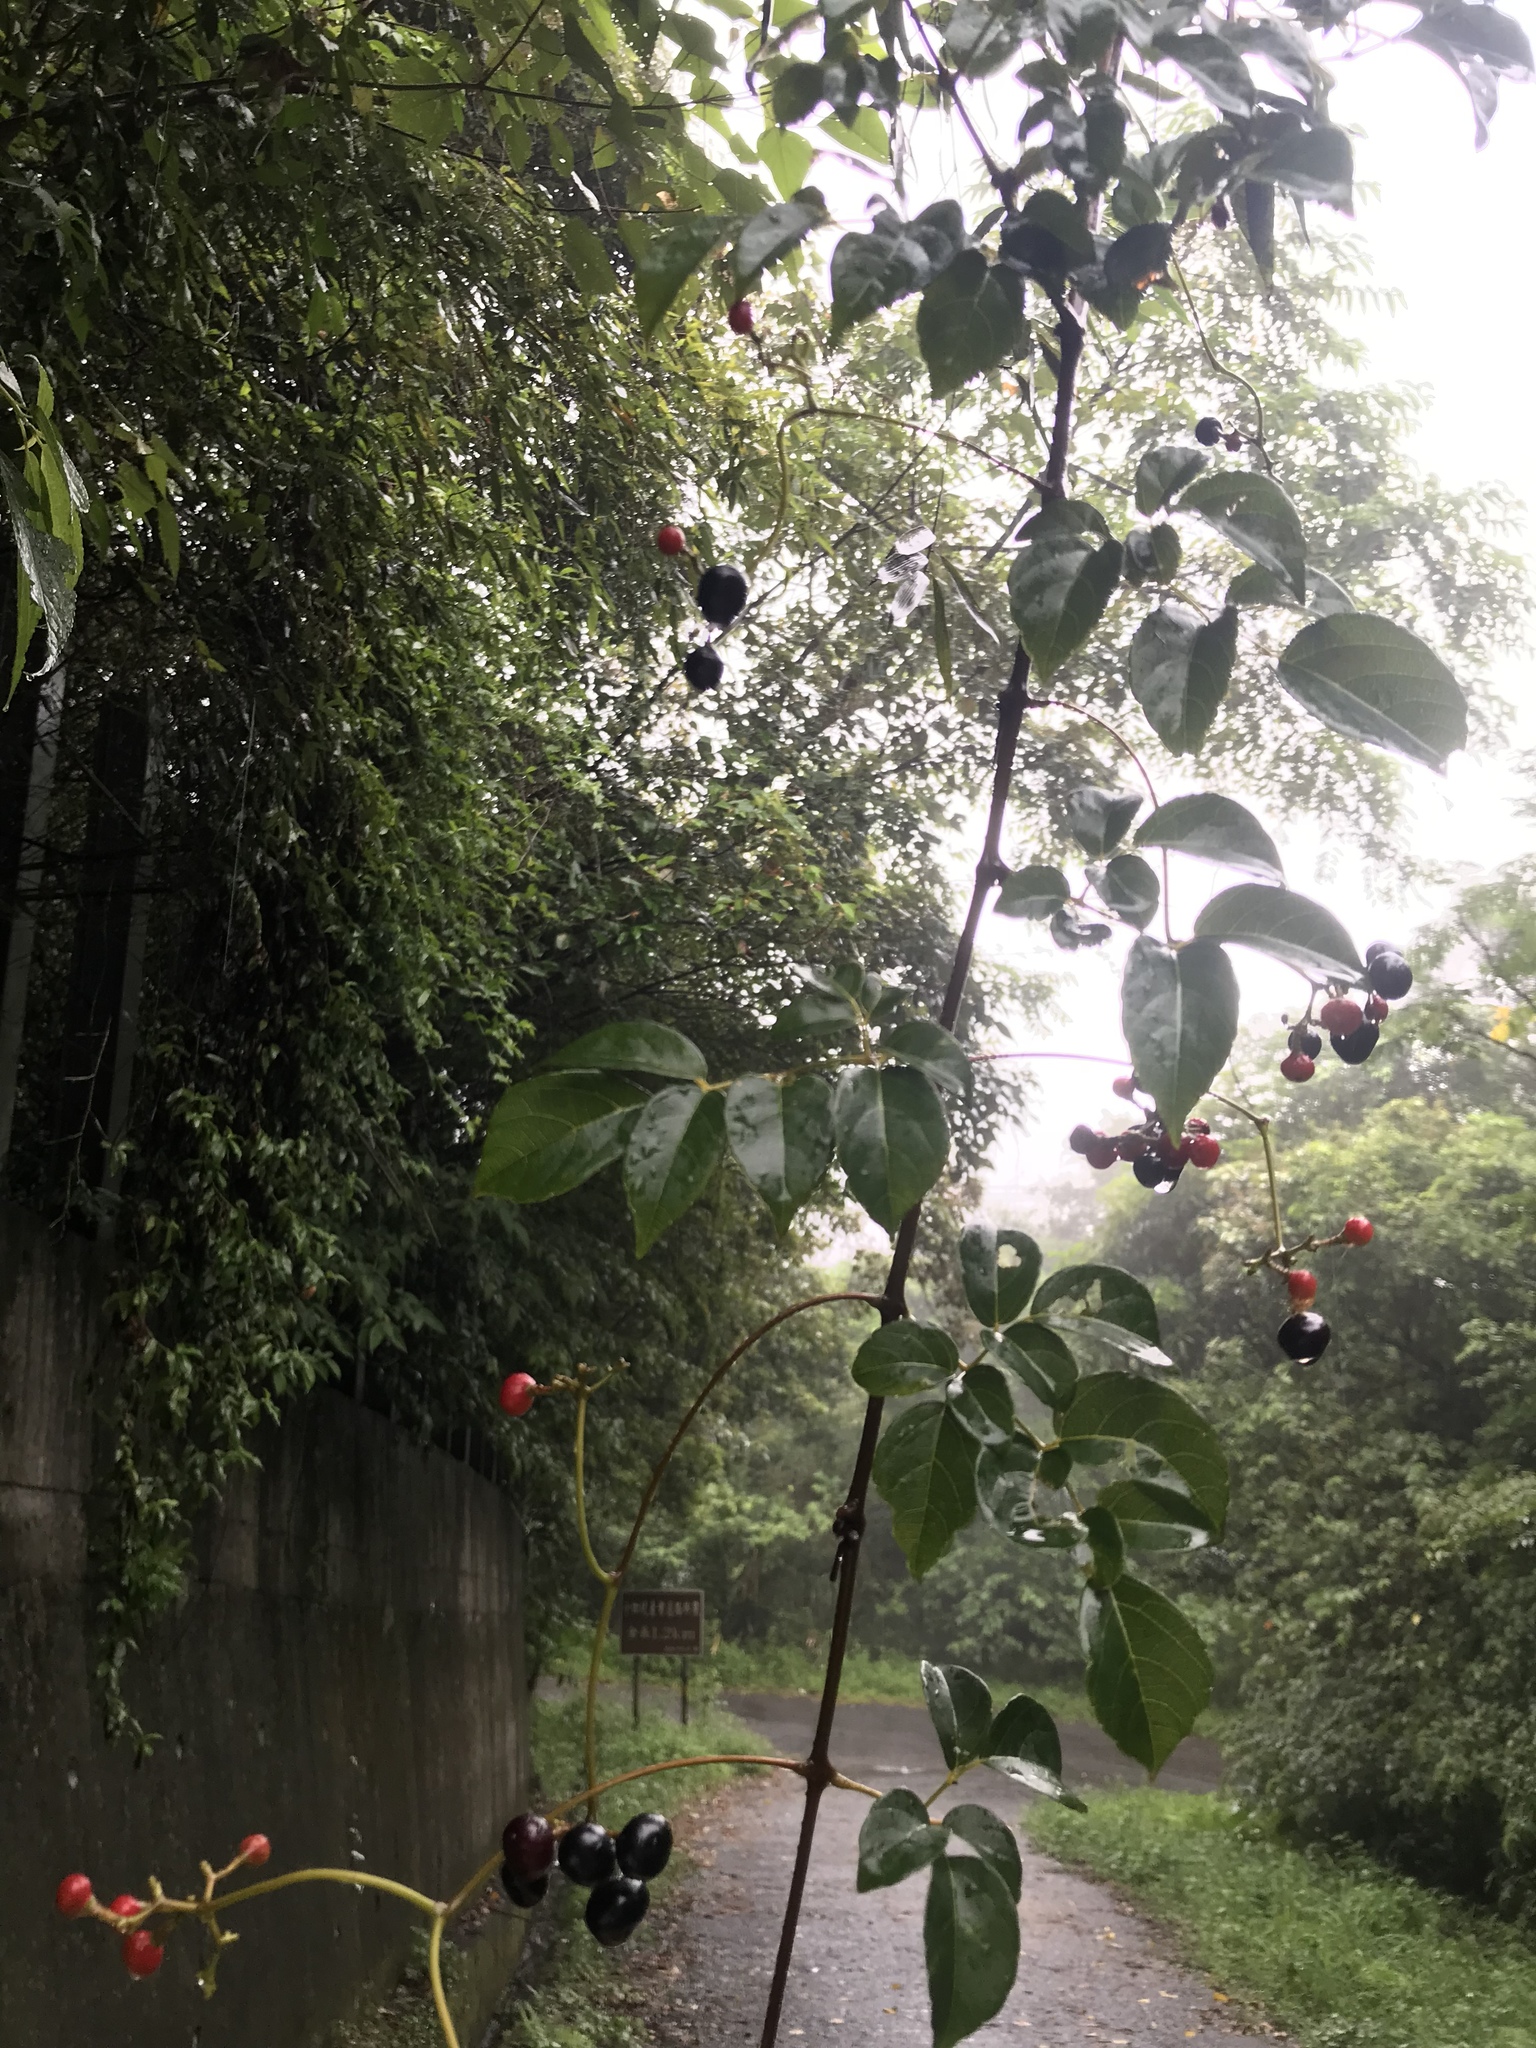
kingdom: Plantae
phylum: Tracheophyta
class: Magnoliopsida
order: Vitales
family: Vitaceae
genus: Nekemias
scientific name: Nekemias cantoniensis
